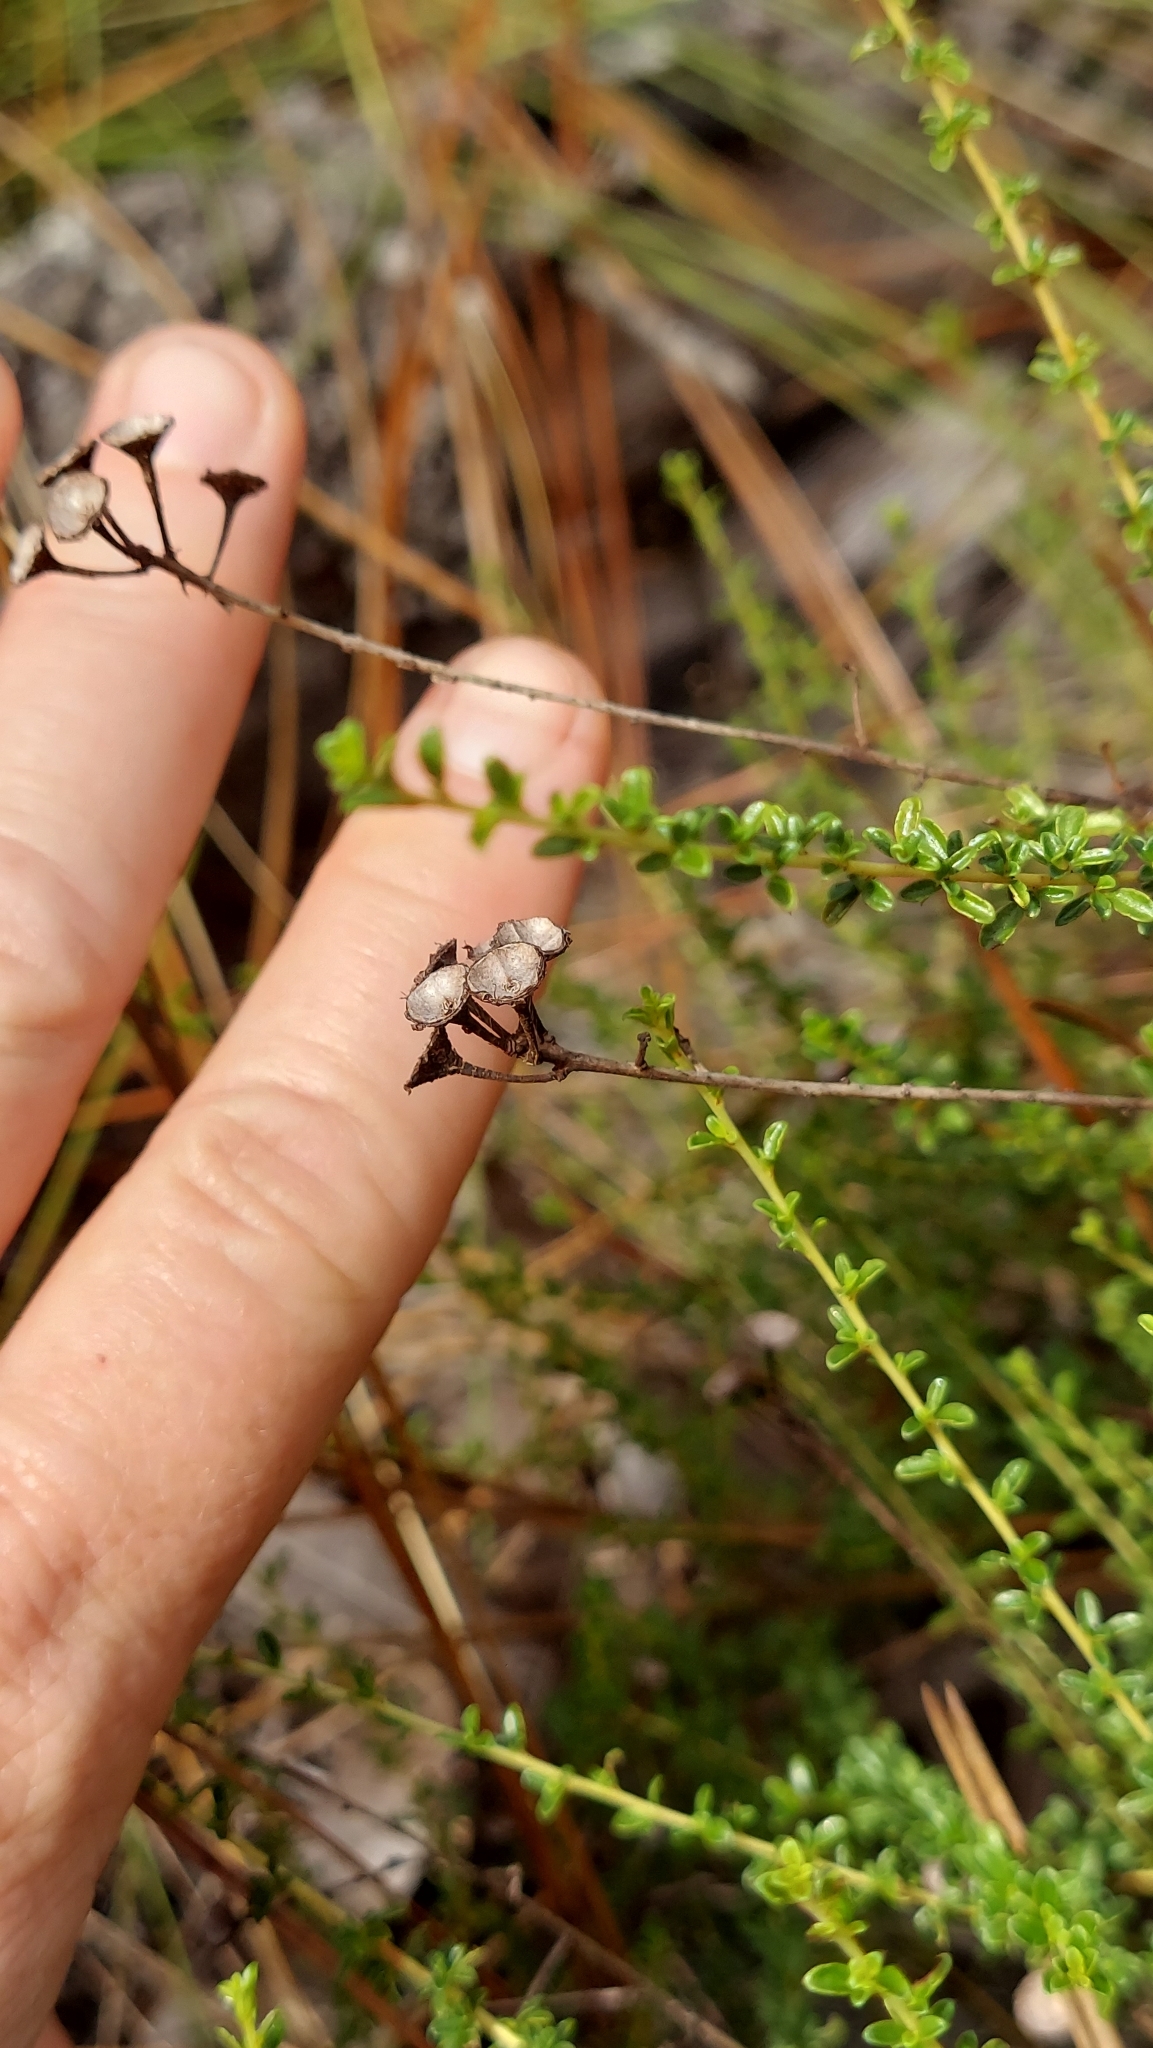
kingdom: Plantae
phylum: Tracheophyta
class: Magnoliopsida
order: Rosales
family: Rhamnaceae
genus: Ceanothus
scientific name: Ceanothus microphyllus
